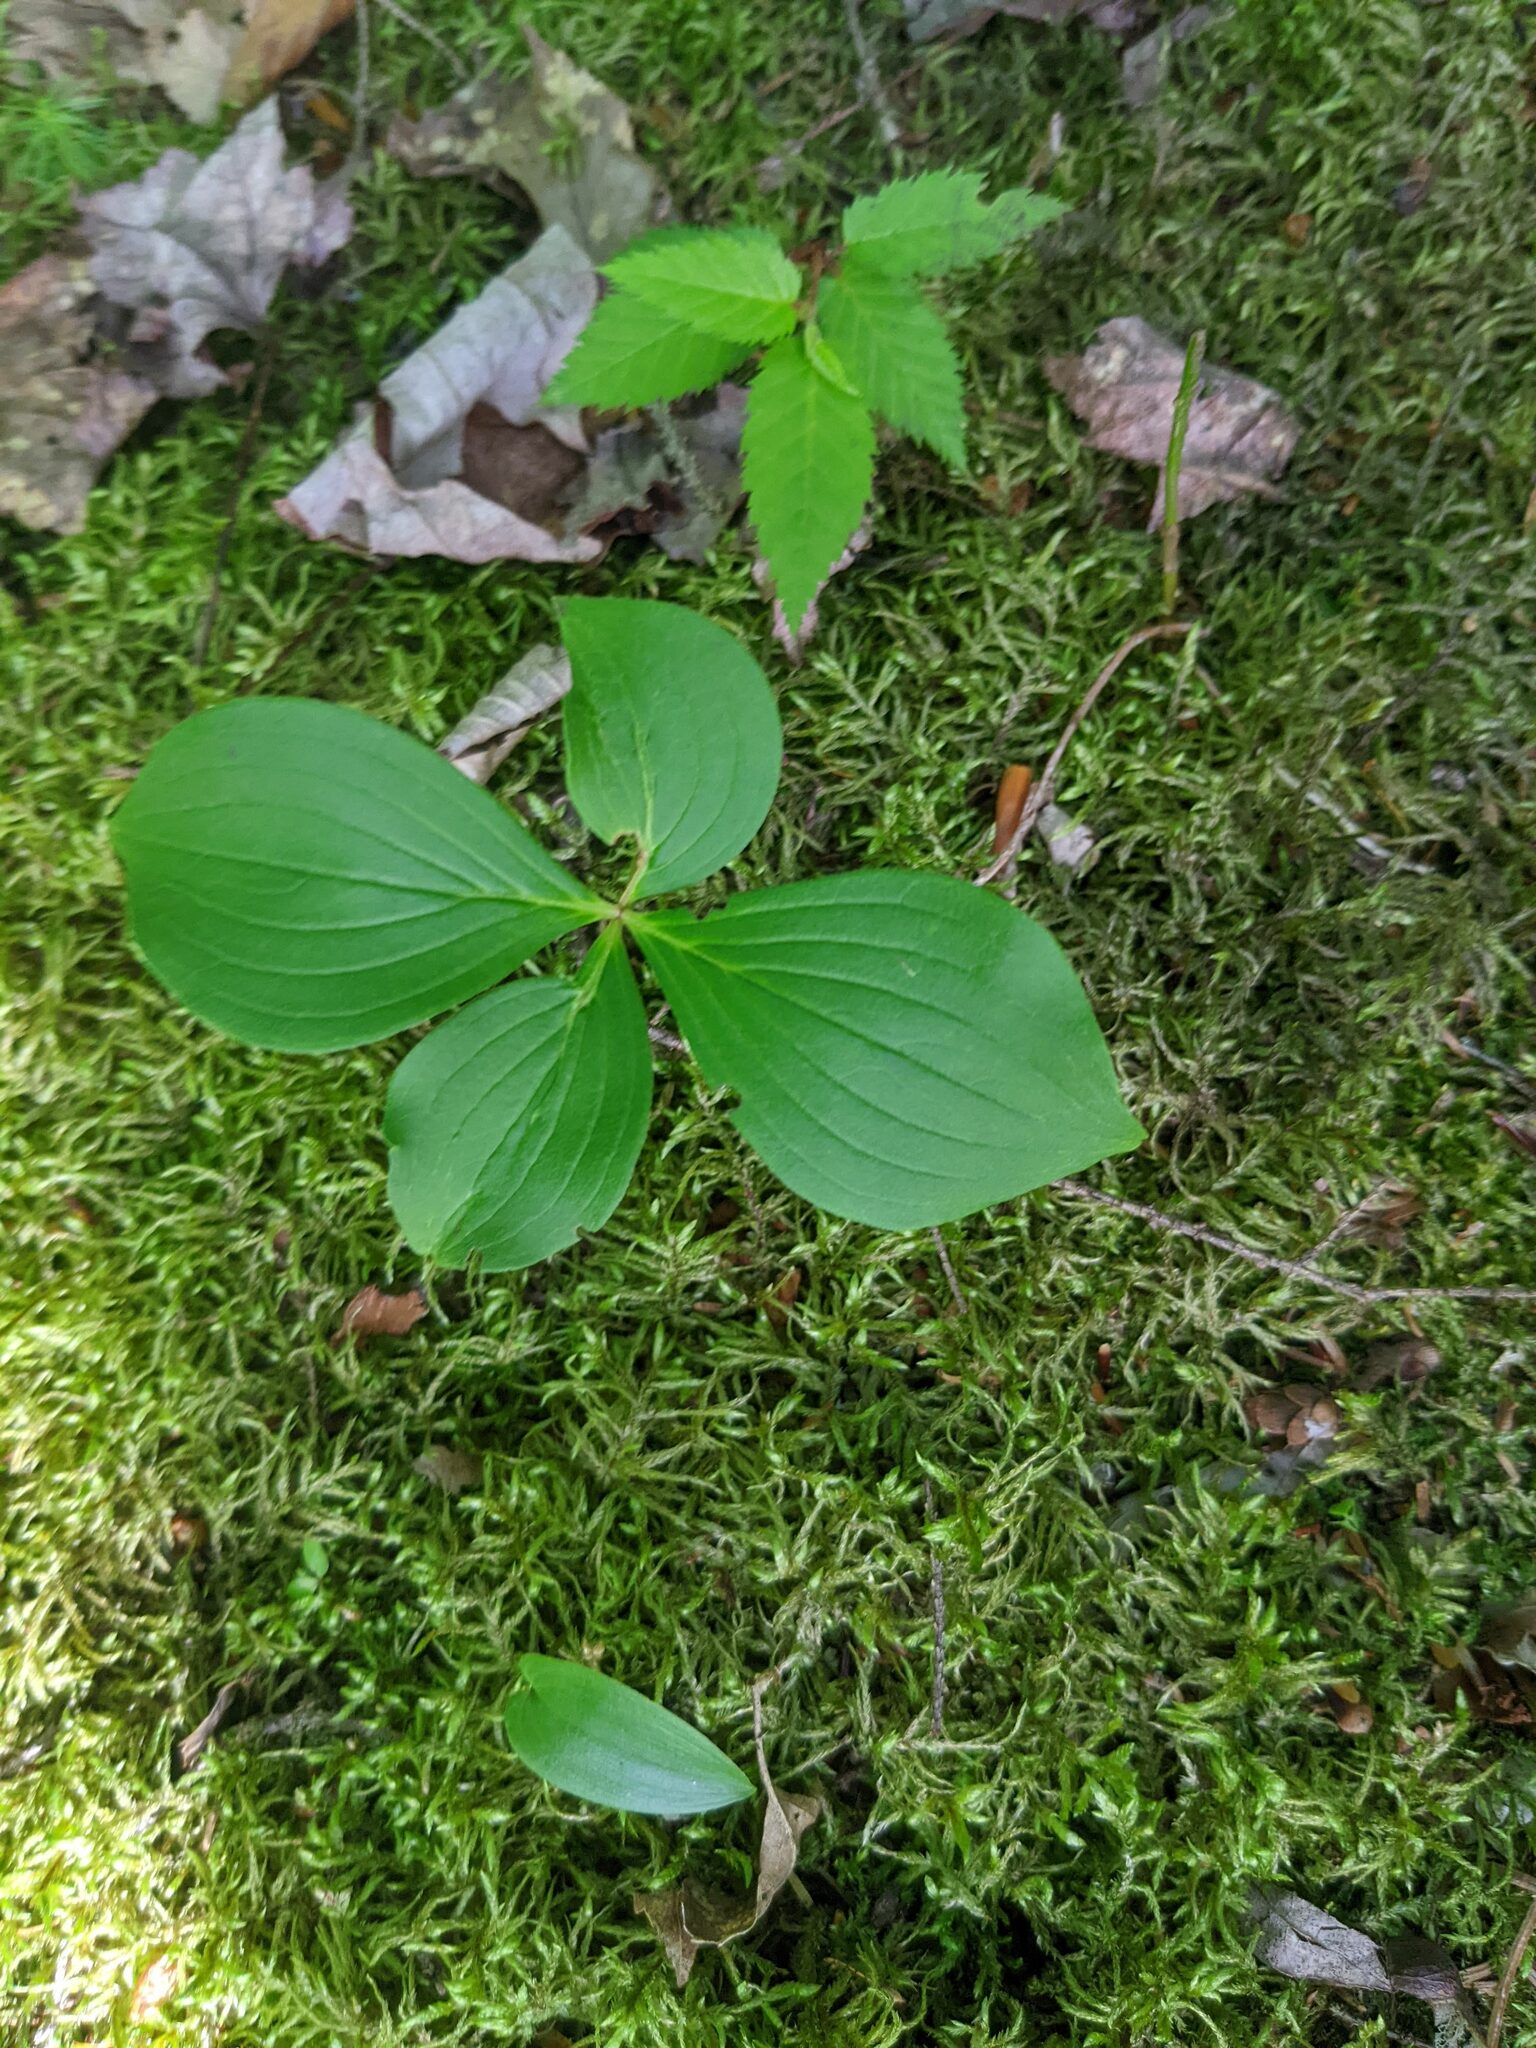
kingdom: Plantae
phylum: Tracheophyta
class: Magnoliopsida
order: Cornales
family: Cornaceae
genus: Cornus
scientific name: Cornus canadensis
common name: Creeping dogwood
